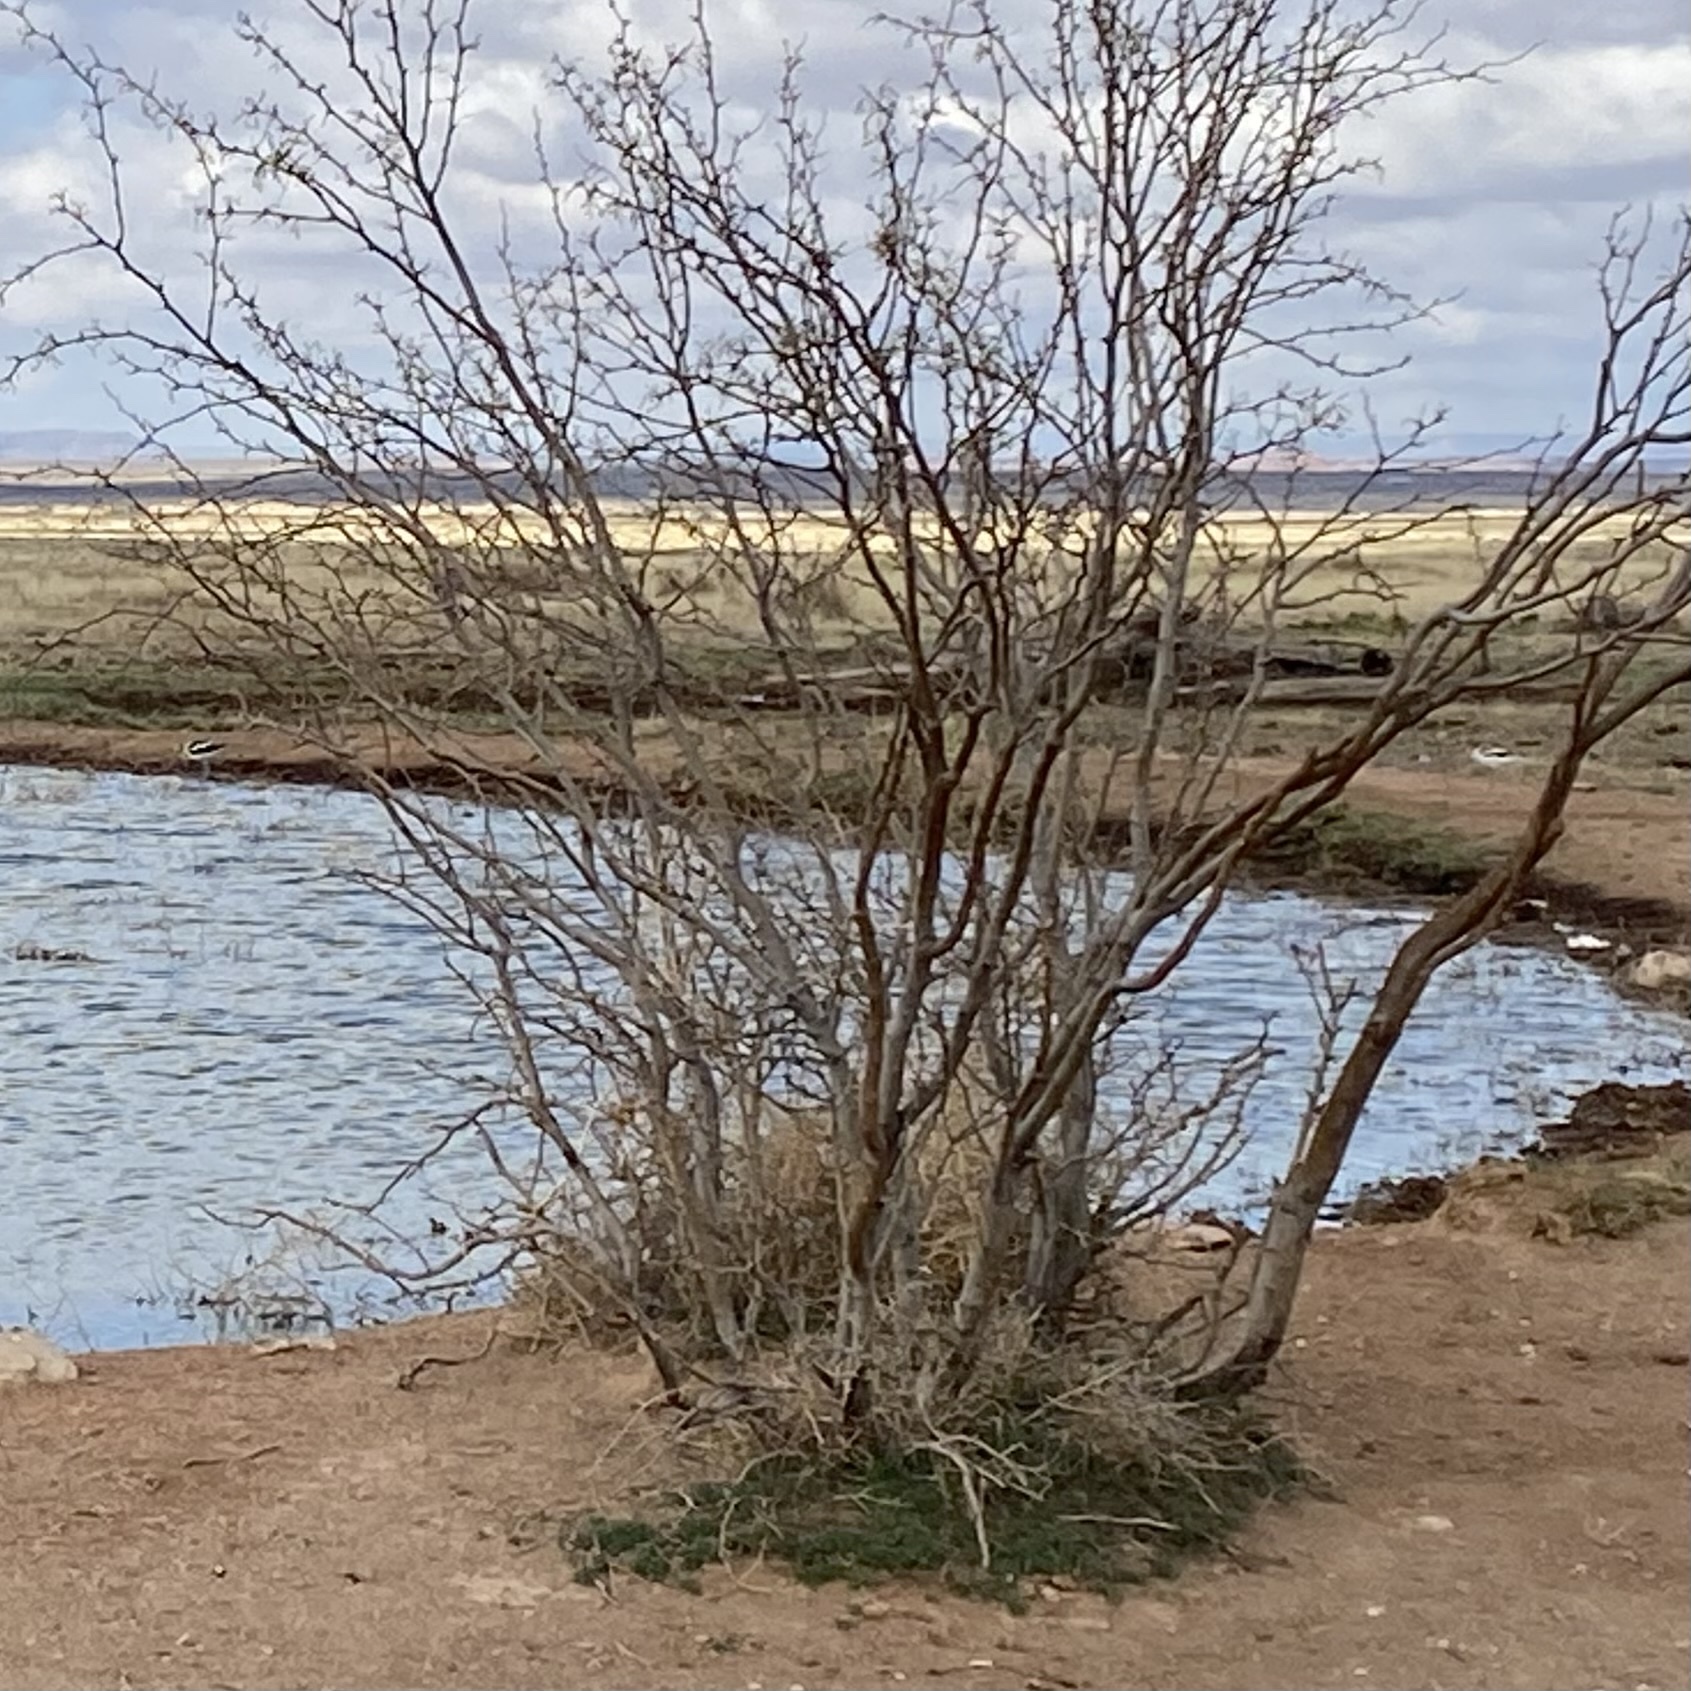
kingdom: Animalia
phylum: Chordata
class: Aves
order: Charadriiformes
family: Recurvirostridae
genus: Recurvirostra
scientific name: Recurvirostra americana
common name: American avocet
